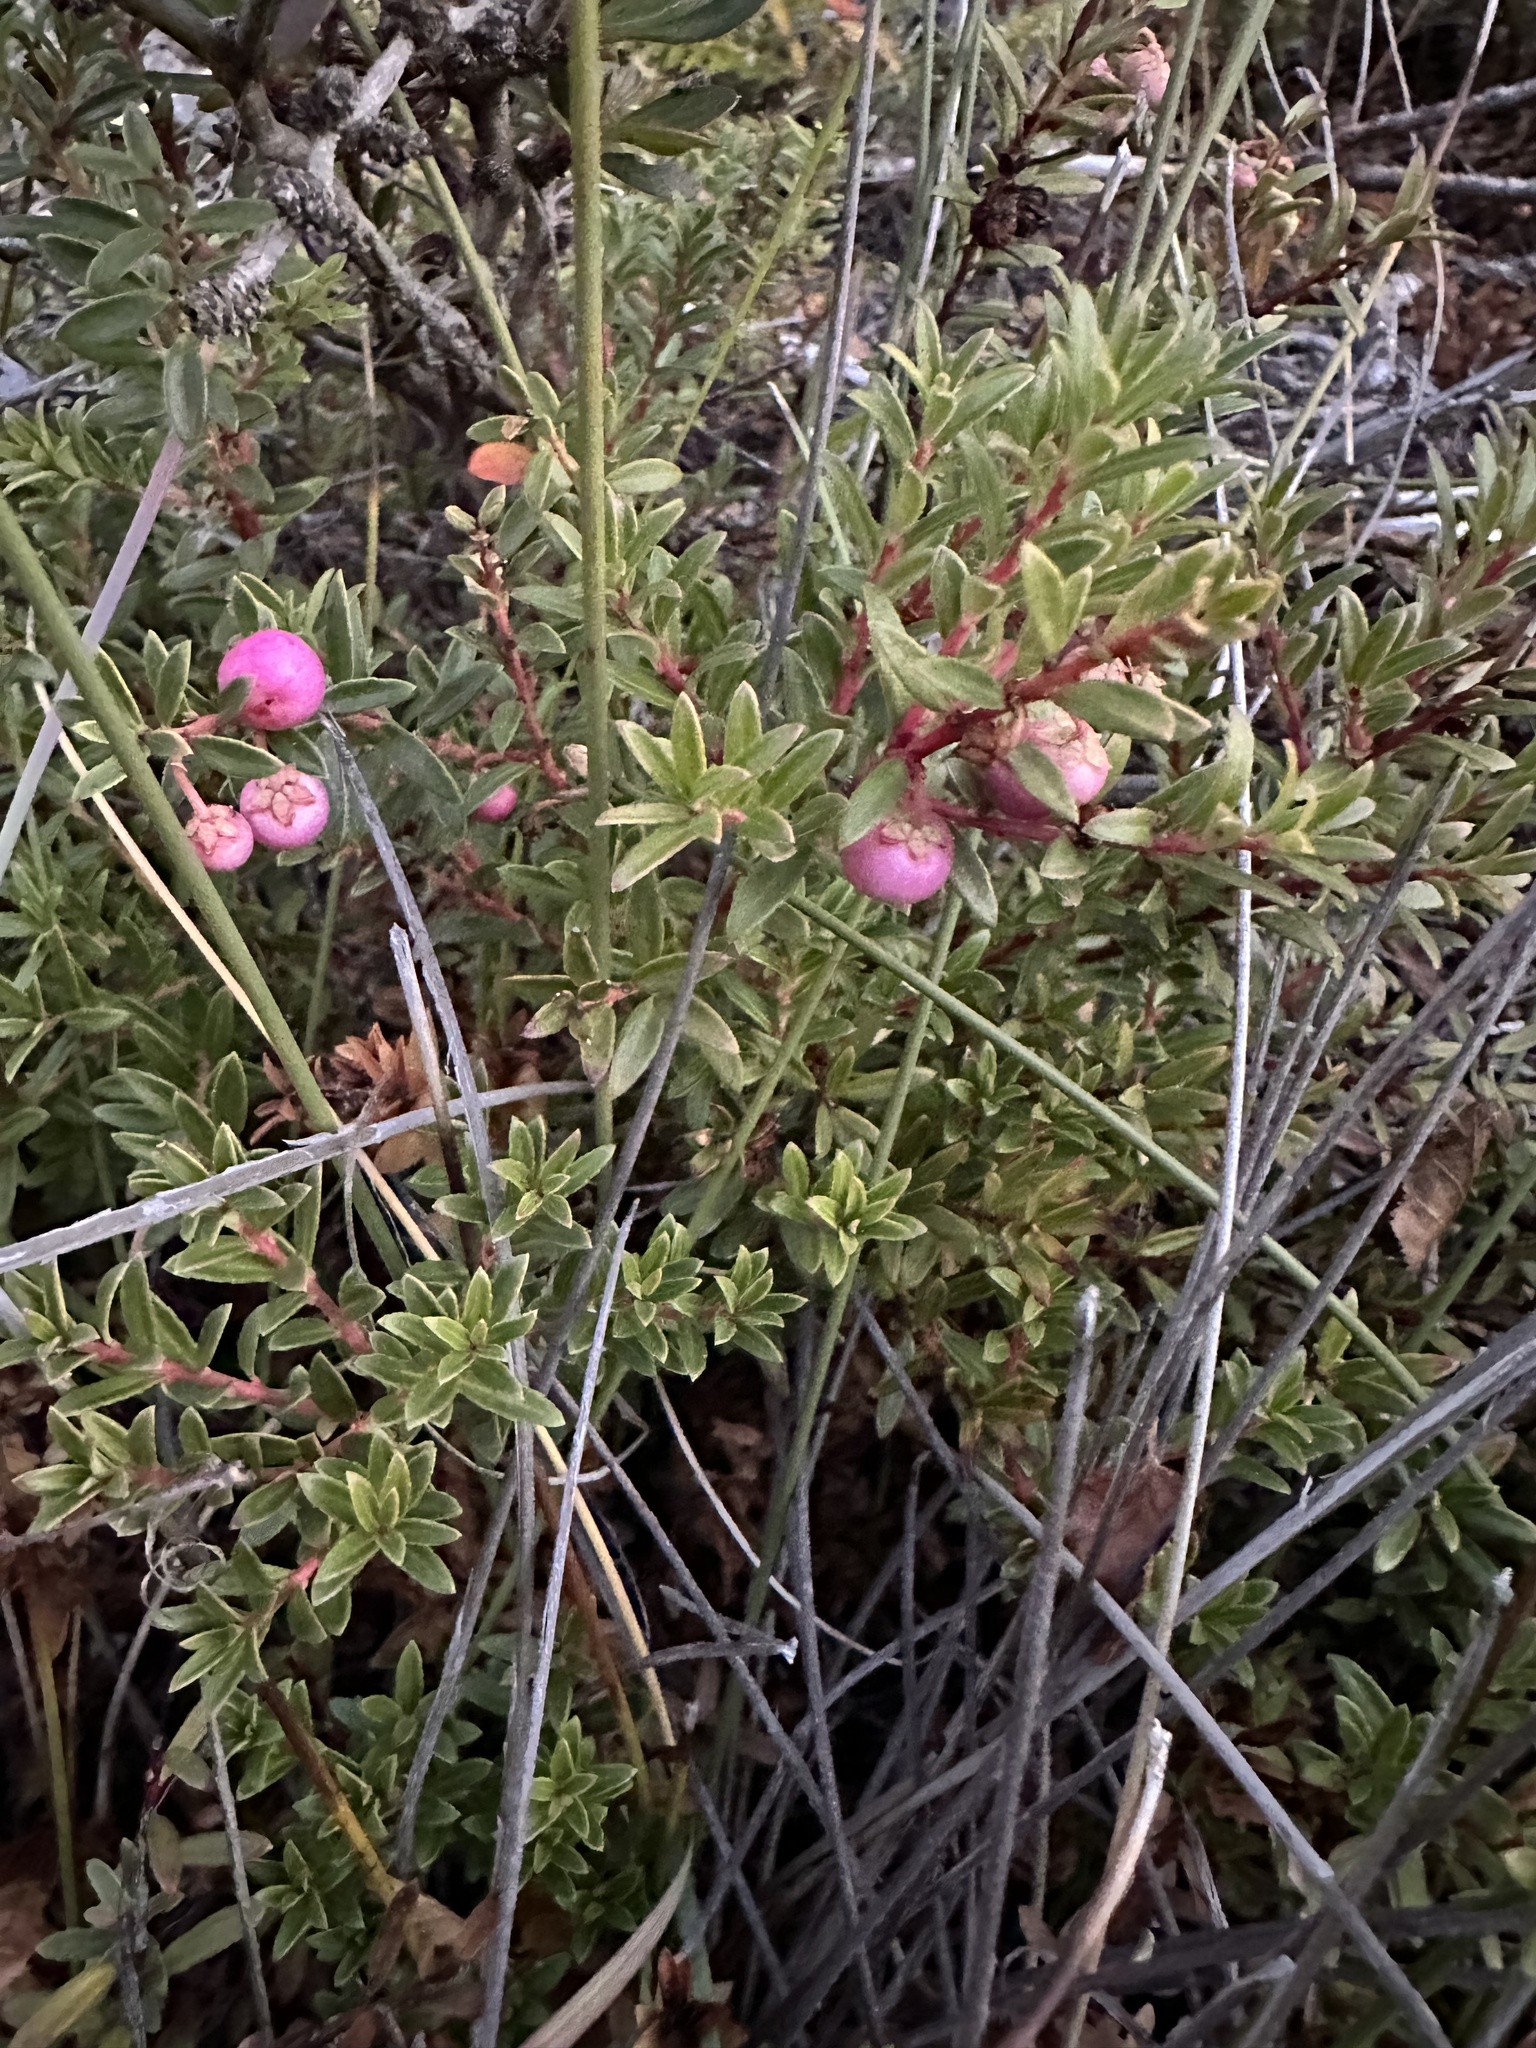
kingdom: Plantae
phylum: Tracheophyta
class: Magnoliopsida
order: Ericales
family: Ericaceae
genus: Gaultheria
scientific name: Gaultheria poeppigii
